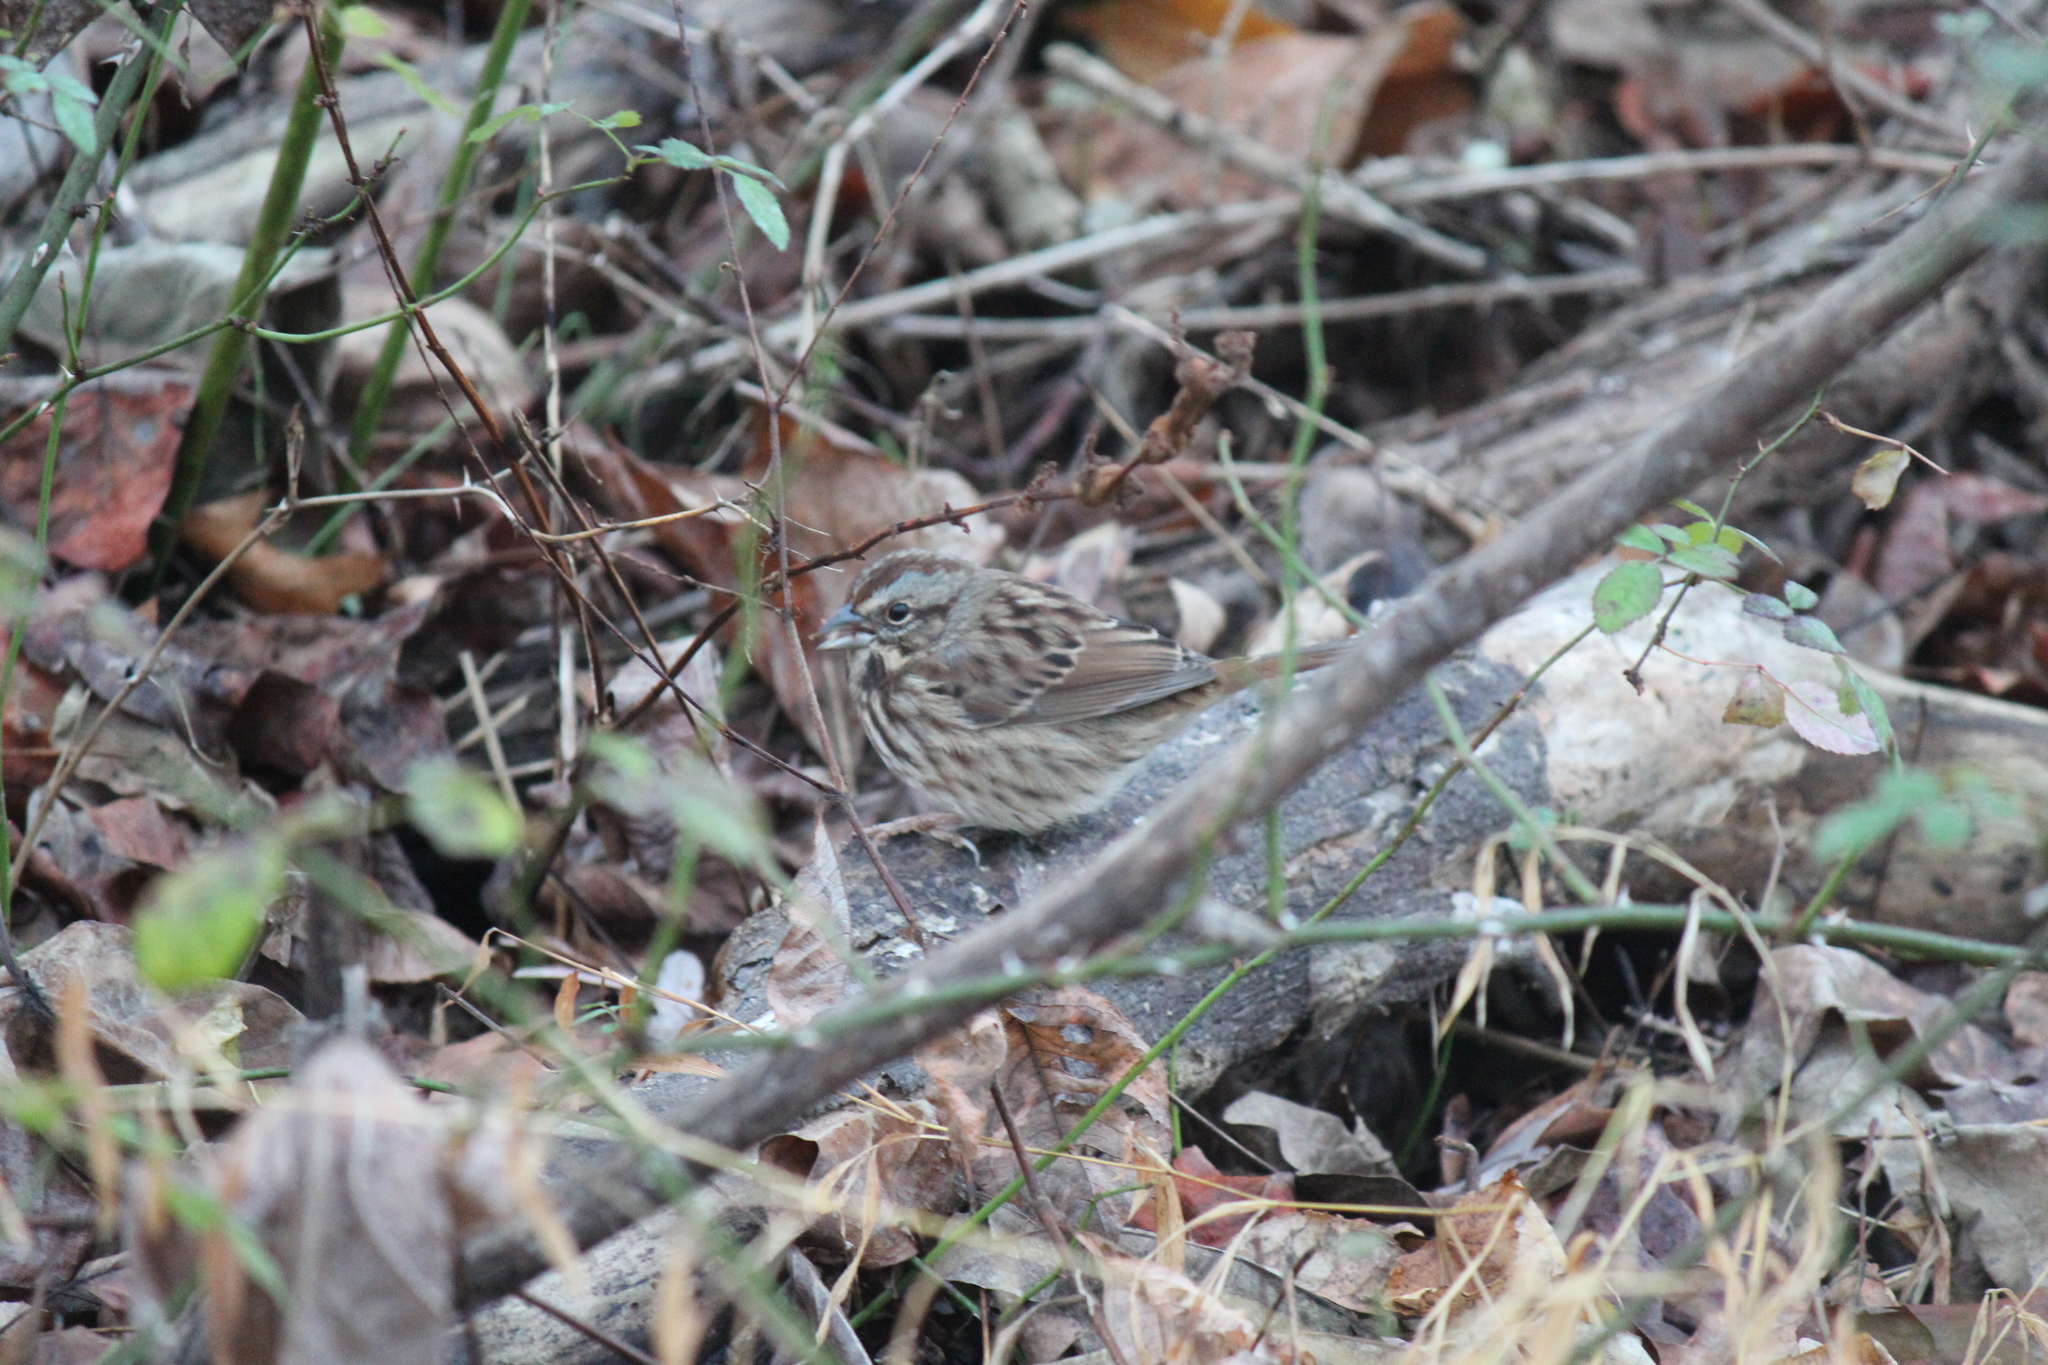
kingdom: Animalia
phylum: Chordata
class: Aves
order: Passeriformes
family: Passerellidae
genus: Melospiza
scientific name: Melospiza melodia
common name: Song sparrow
